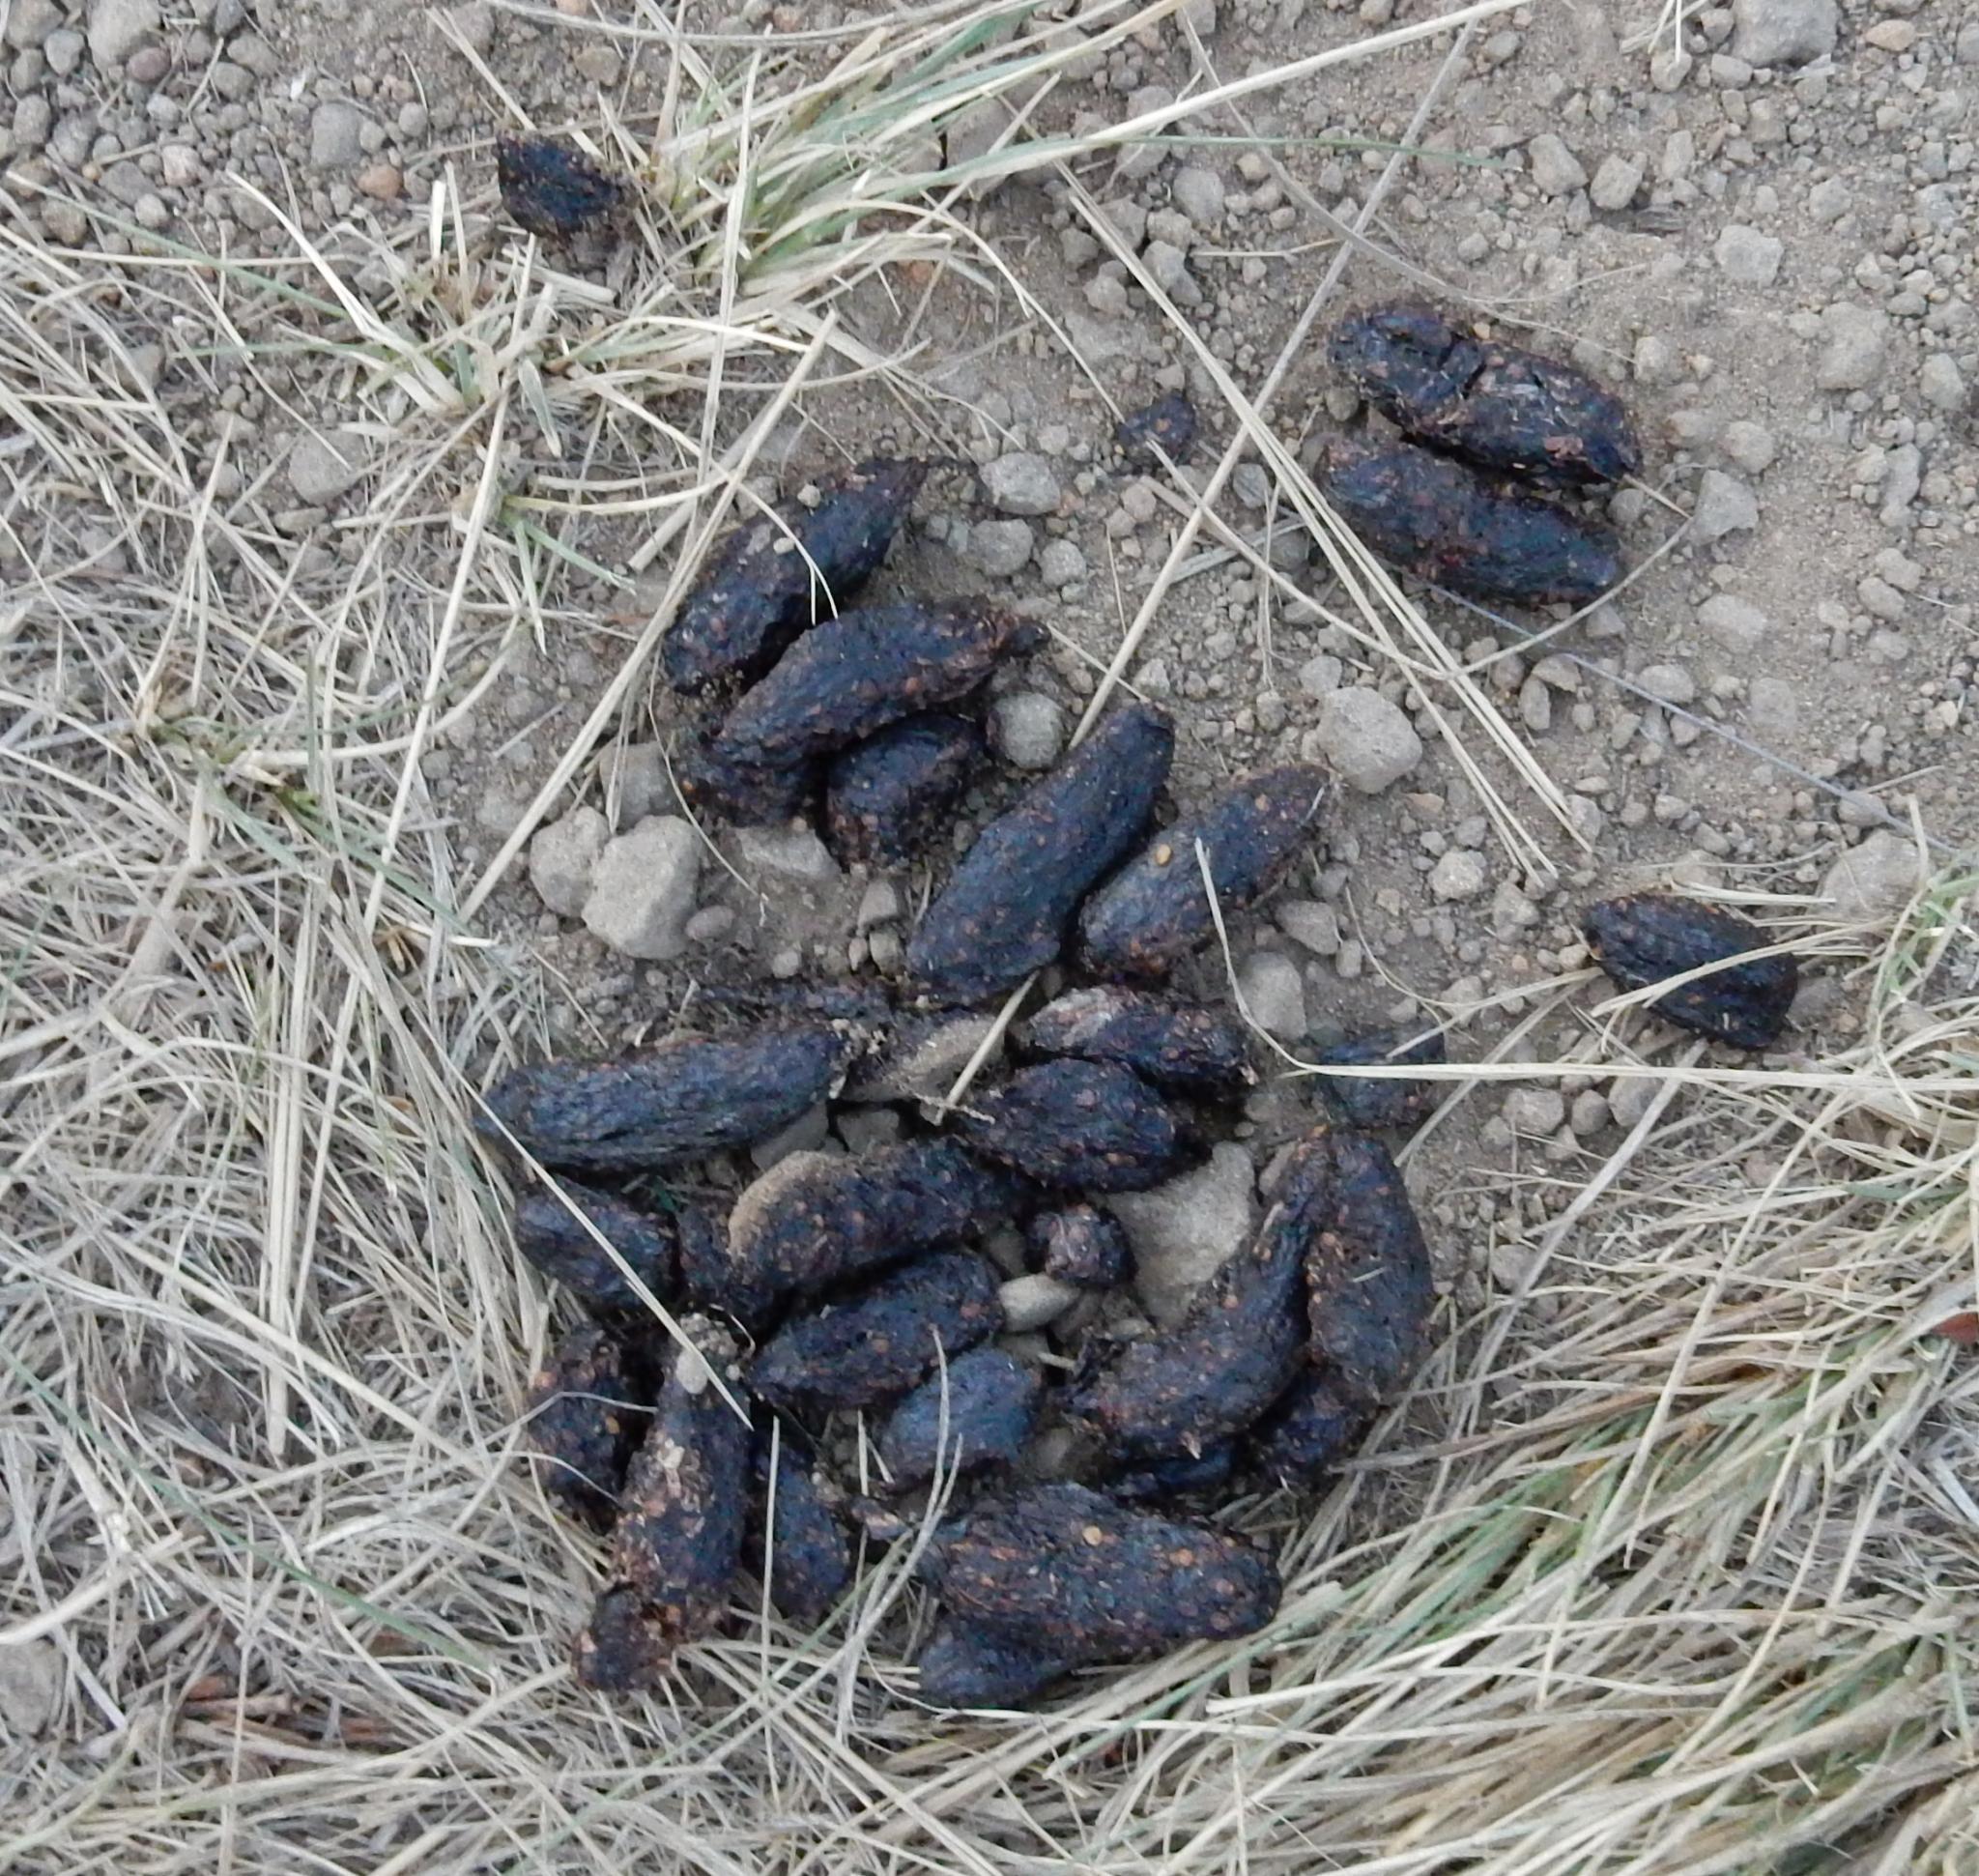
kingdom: Animalia
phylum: Chordata
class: Mammalia
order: Rodentia
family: Hystricidae
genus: Hystrix
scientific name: Hystrix africaeaustralis
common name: Cape porcupine
